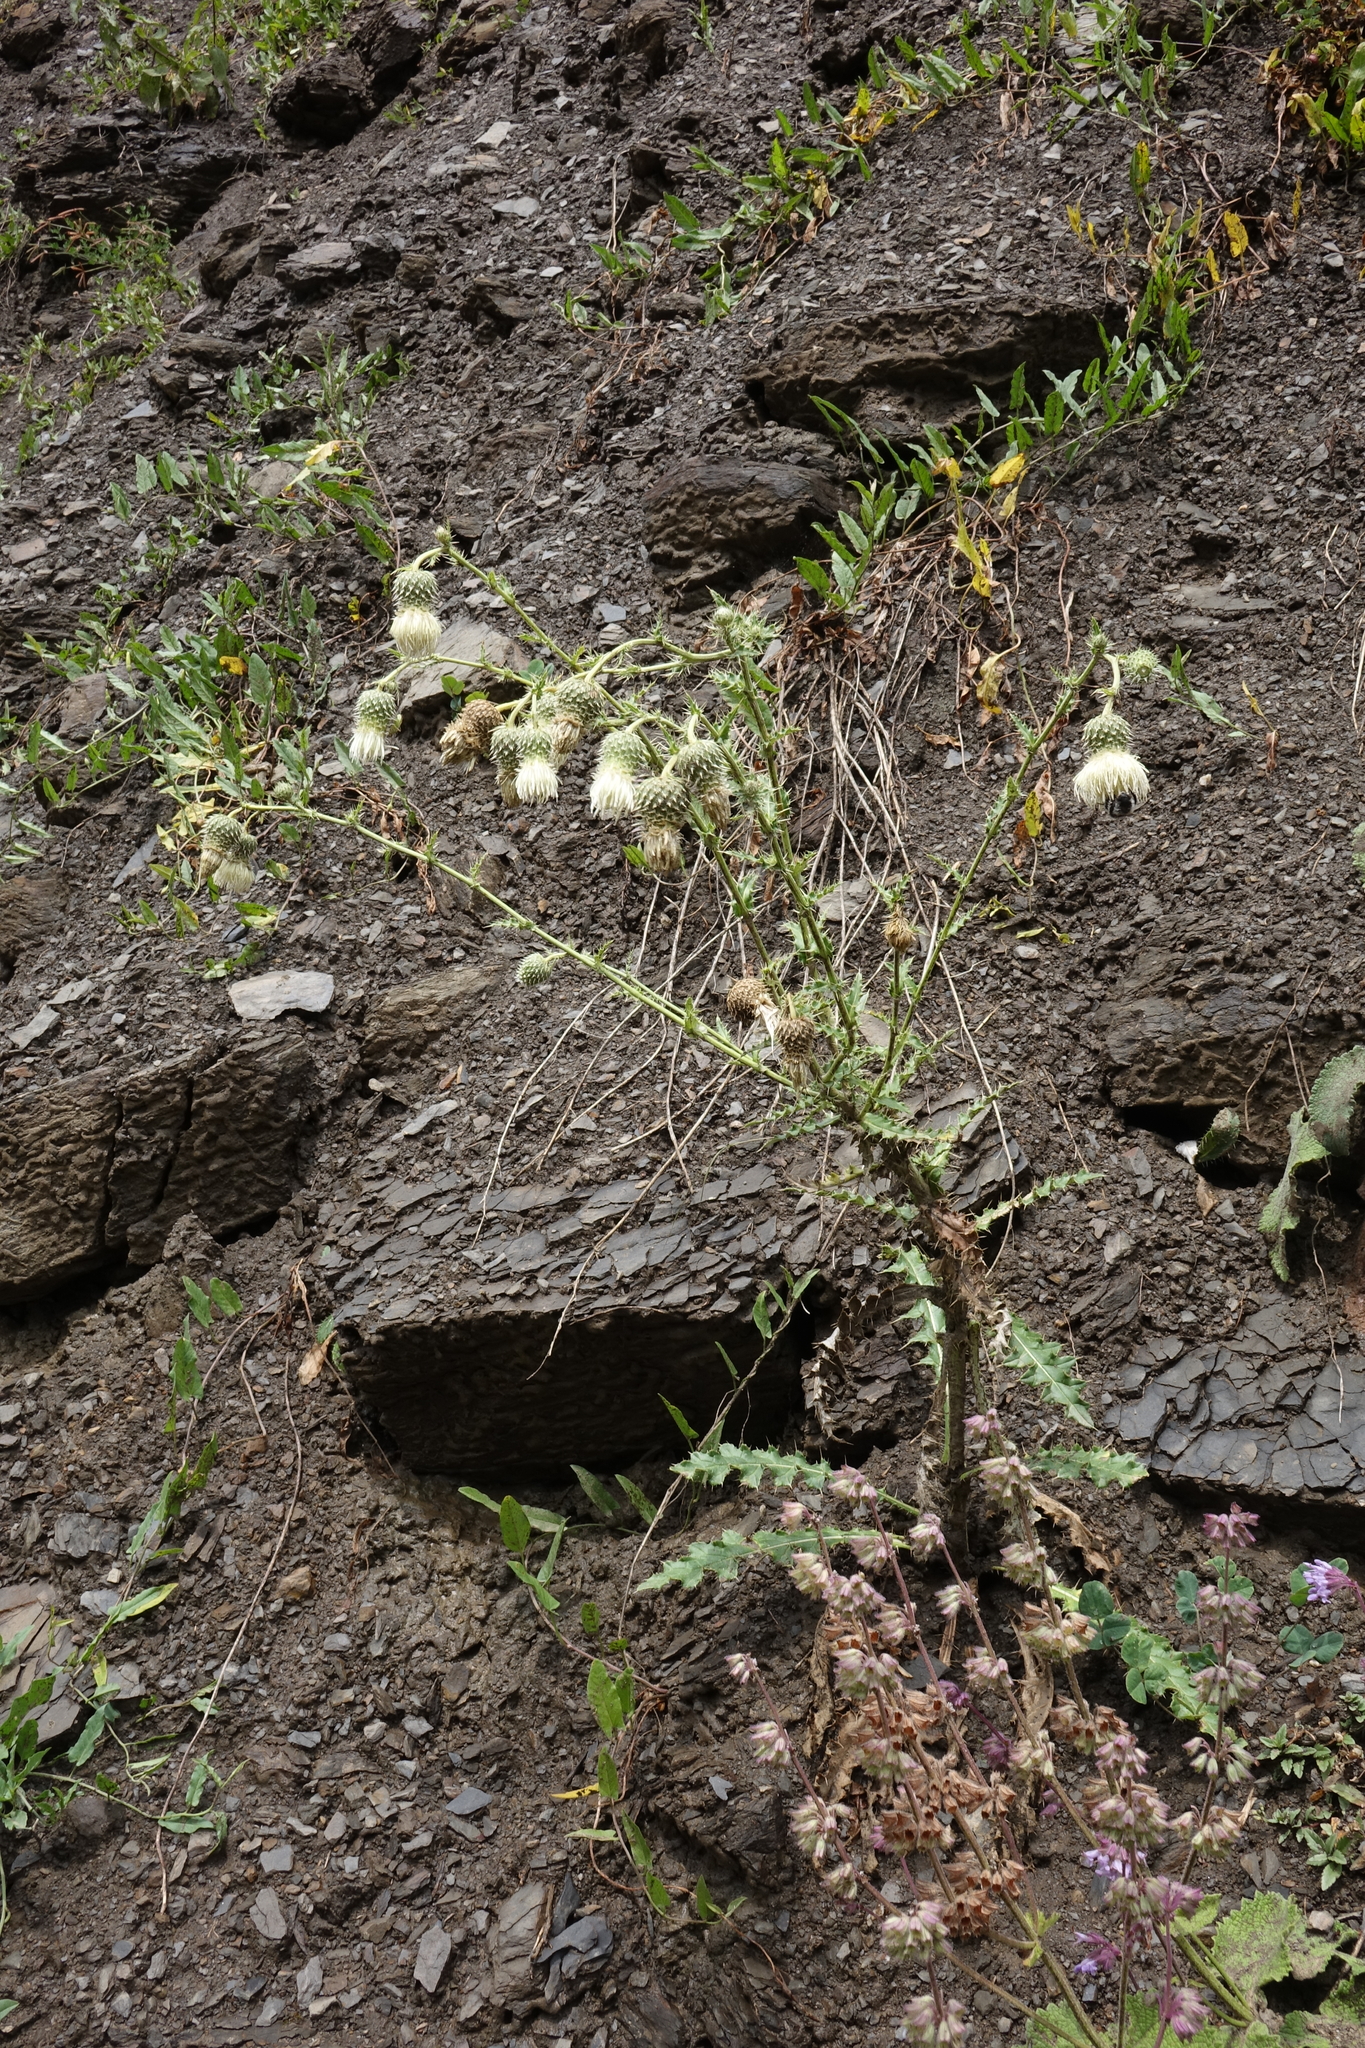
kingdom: Plantae
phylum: Tracheophyta
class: Magnoliopsida
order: Asterales
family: Asteraceae
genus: Cirsium
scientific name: Cirsium echinus
